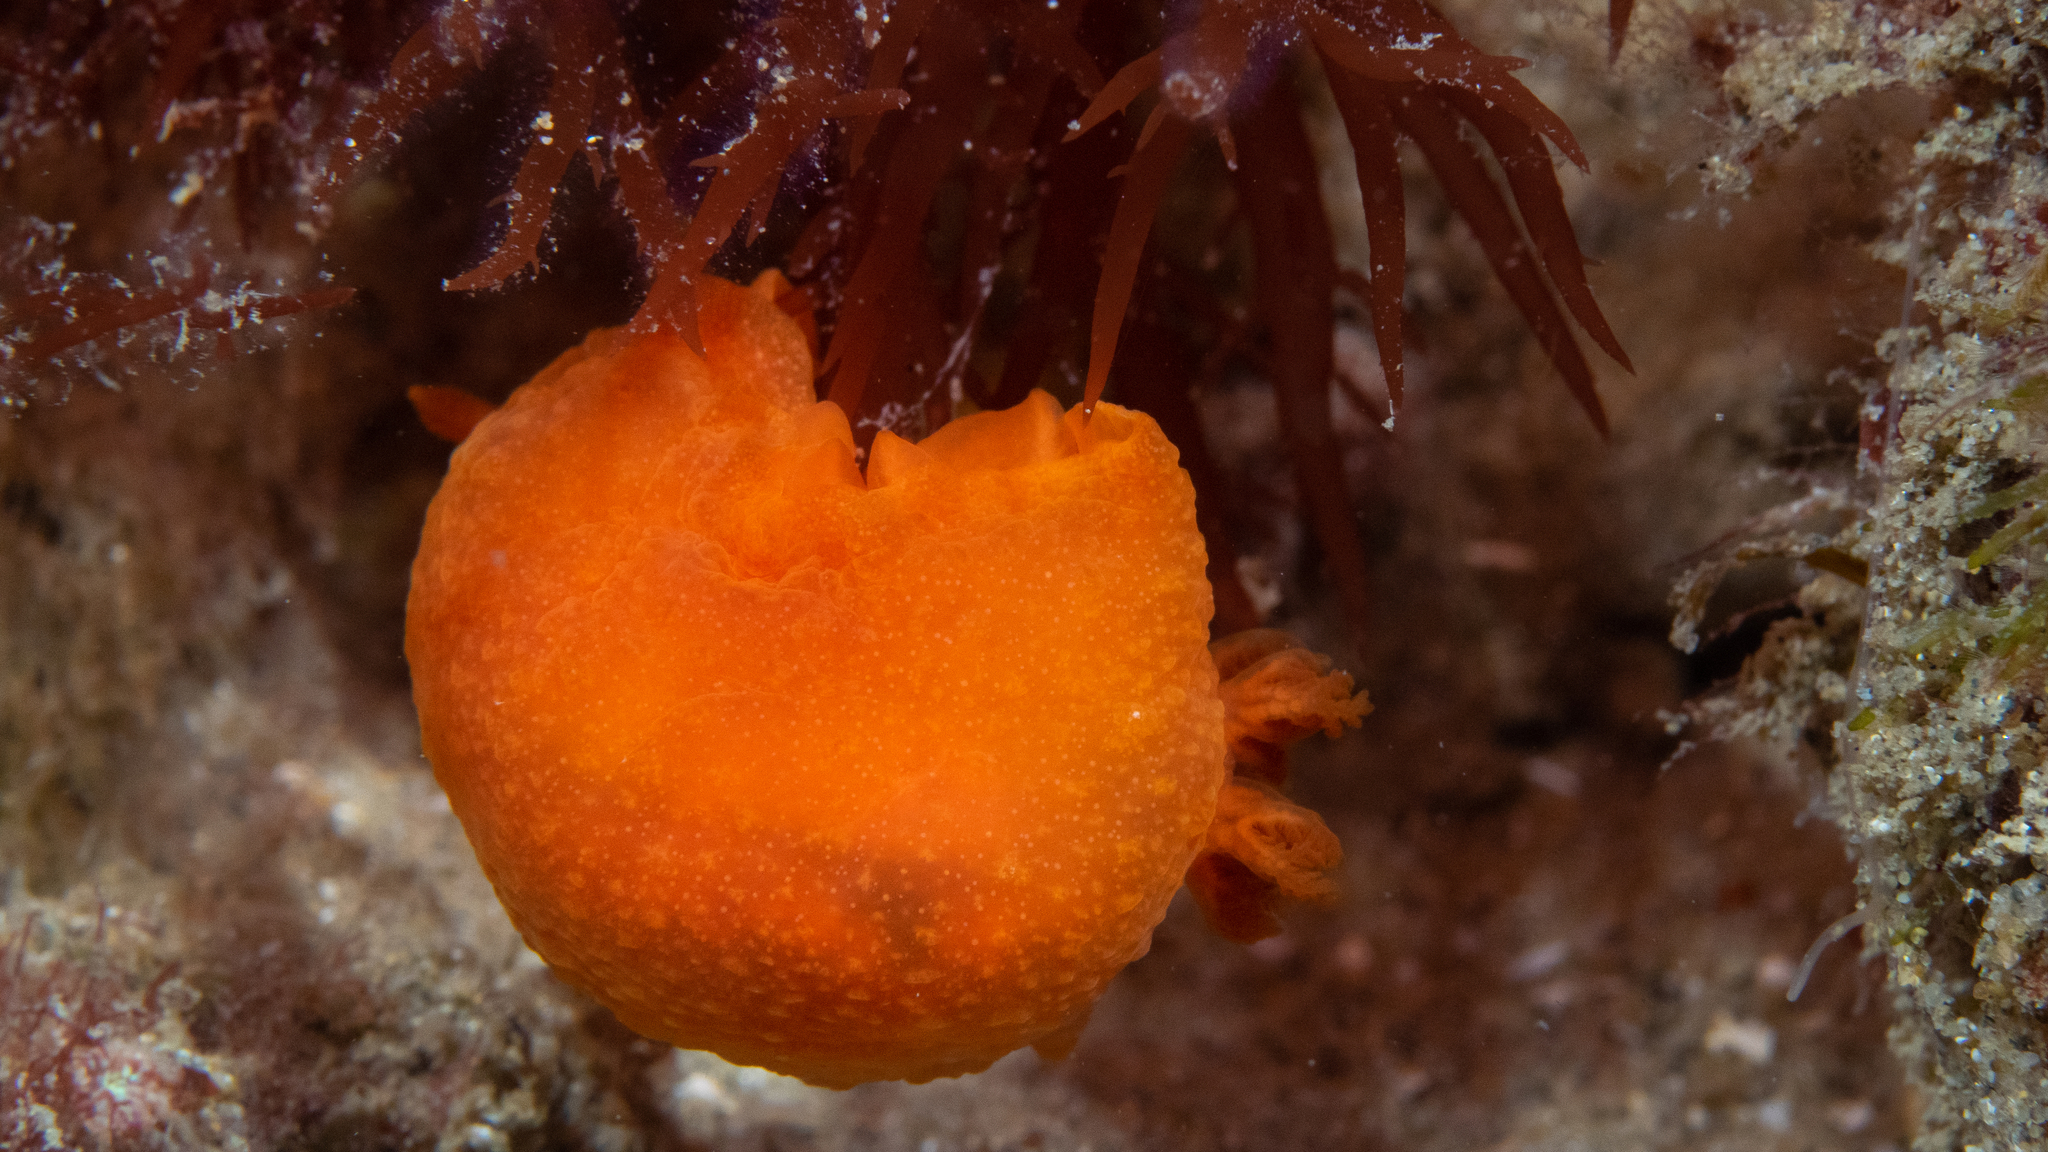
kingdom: Animalia
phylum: Mollusca
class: Gastropoda
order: Nudibranchia
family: Dendrodorididae
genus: Doriopsilla
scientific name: Doriopsilla carneola
